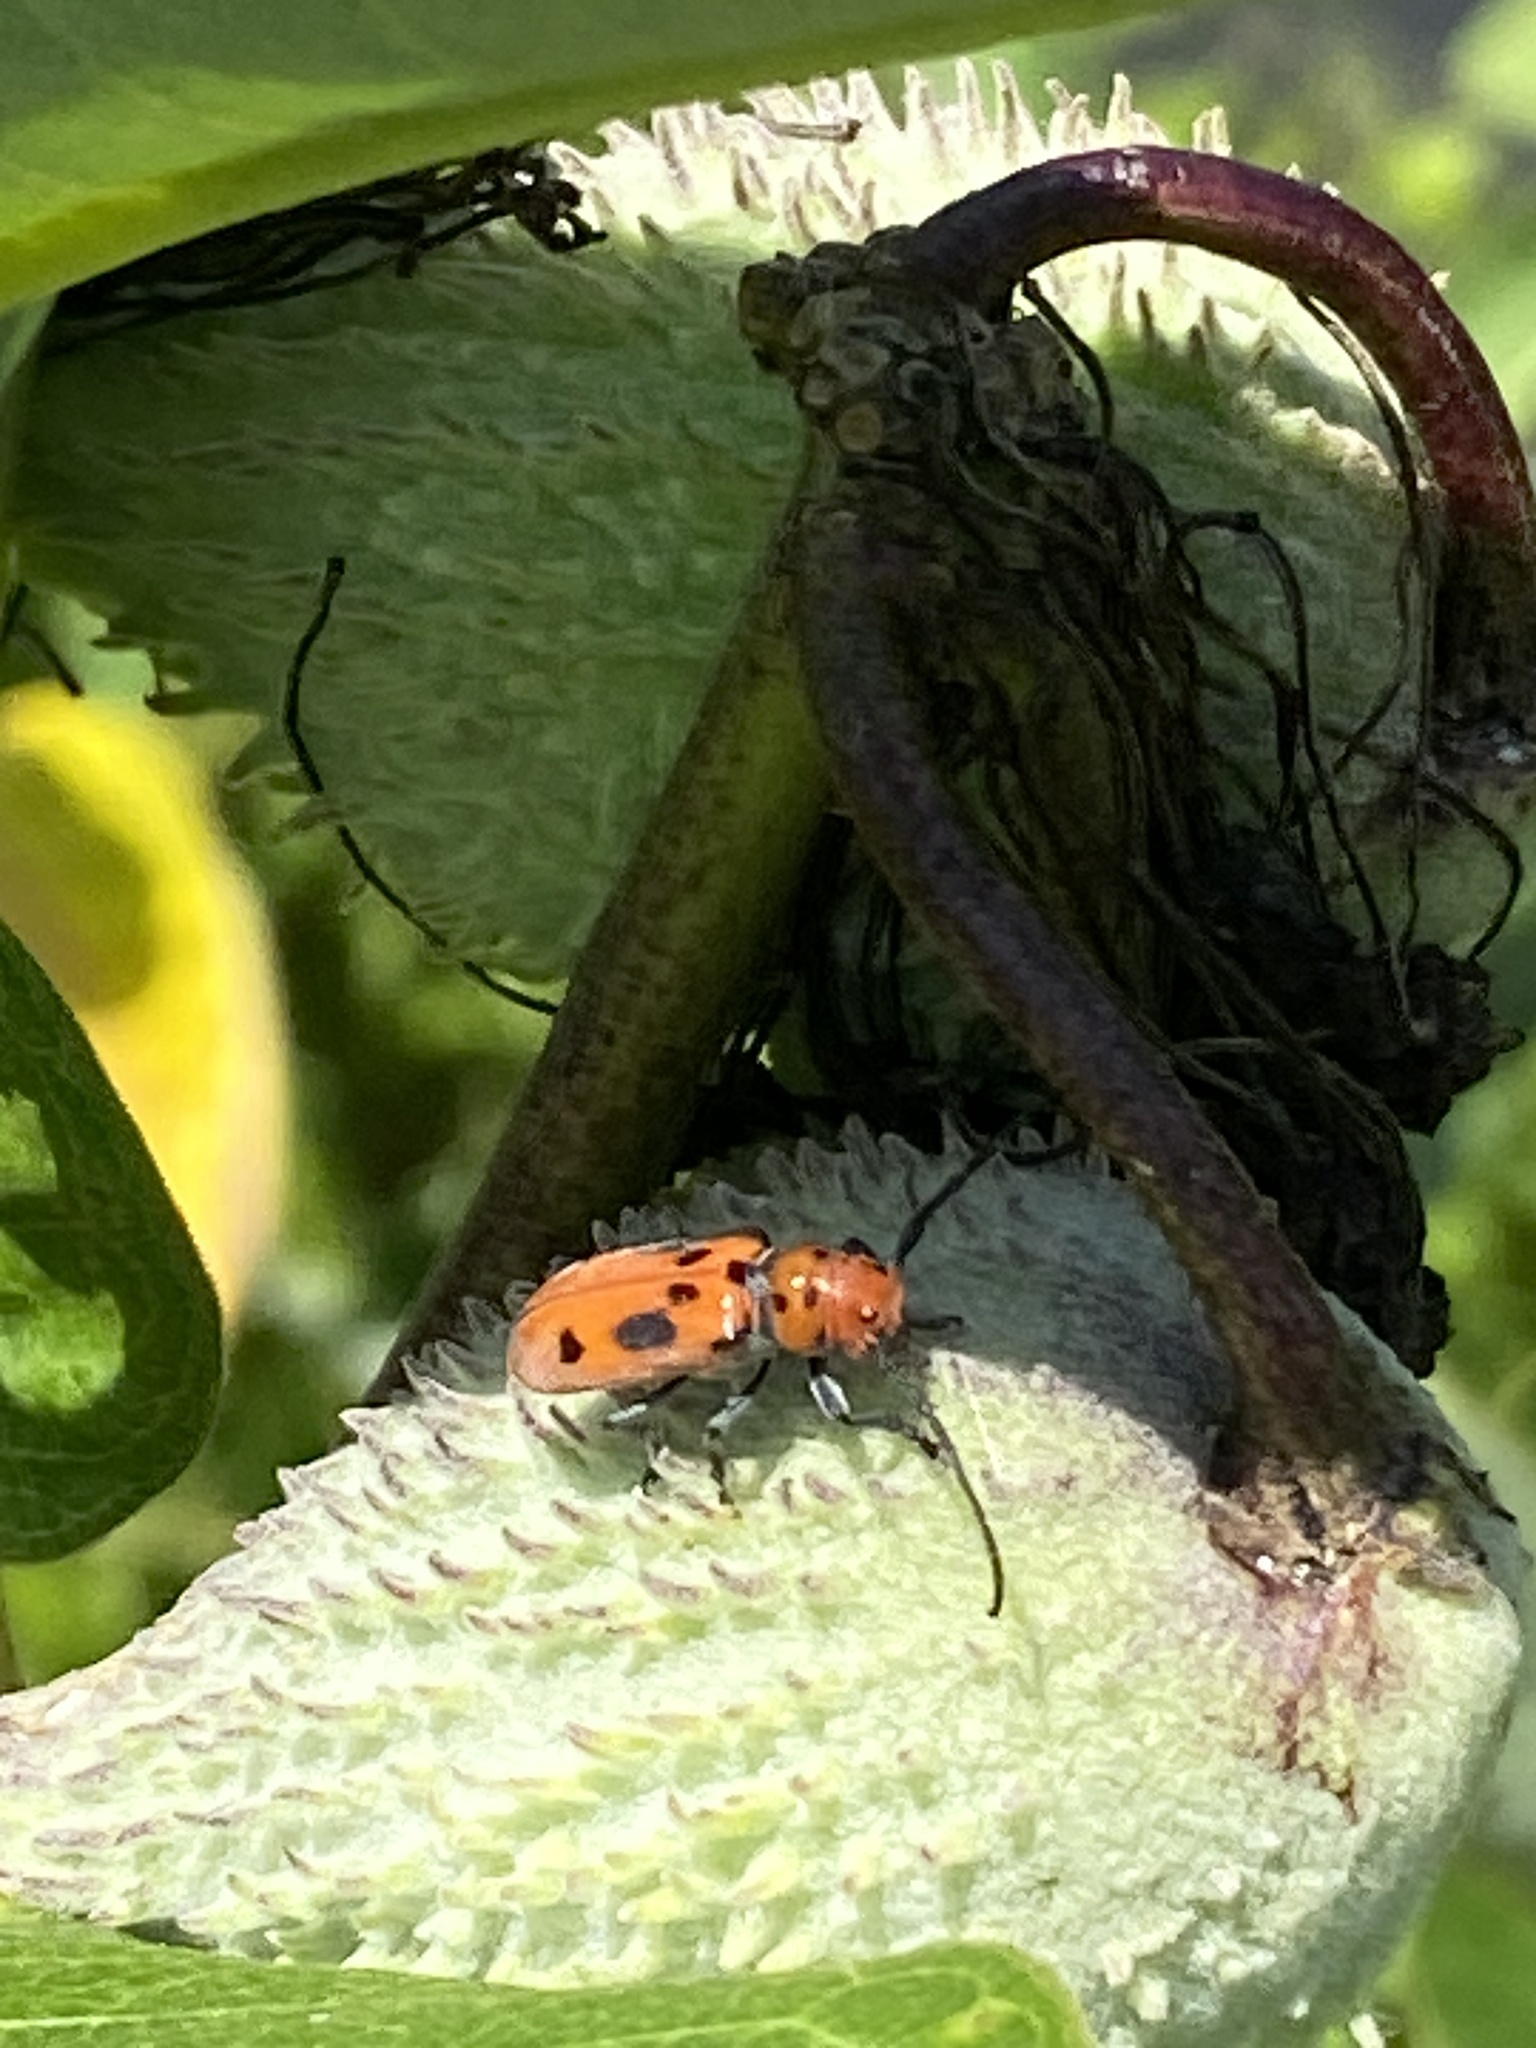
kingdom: Animalia
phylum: Arthropoda
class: Insecta
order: Coleoptera
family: Cerambycidae
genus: Tetraopes
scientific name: Tetraopes tetrophthalmus
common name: Red milkweed beetle
